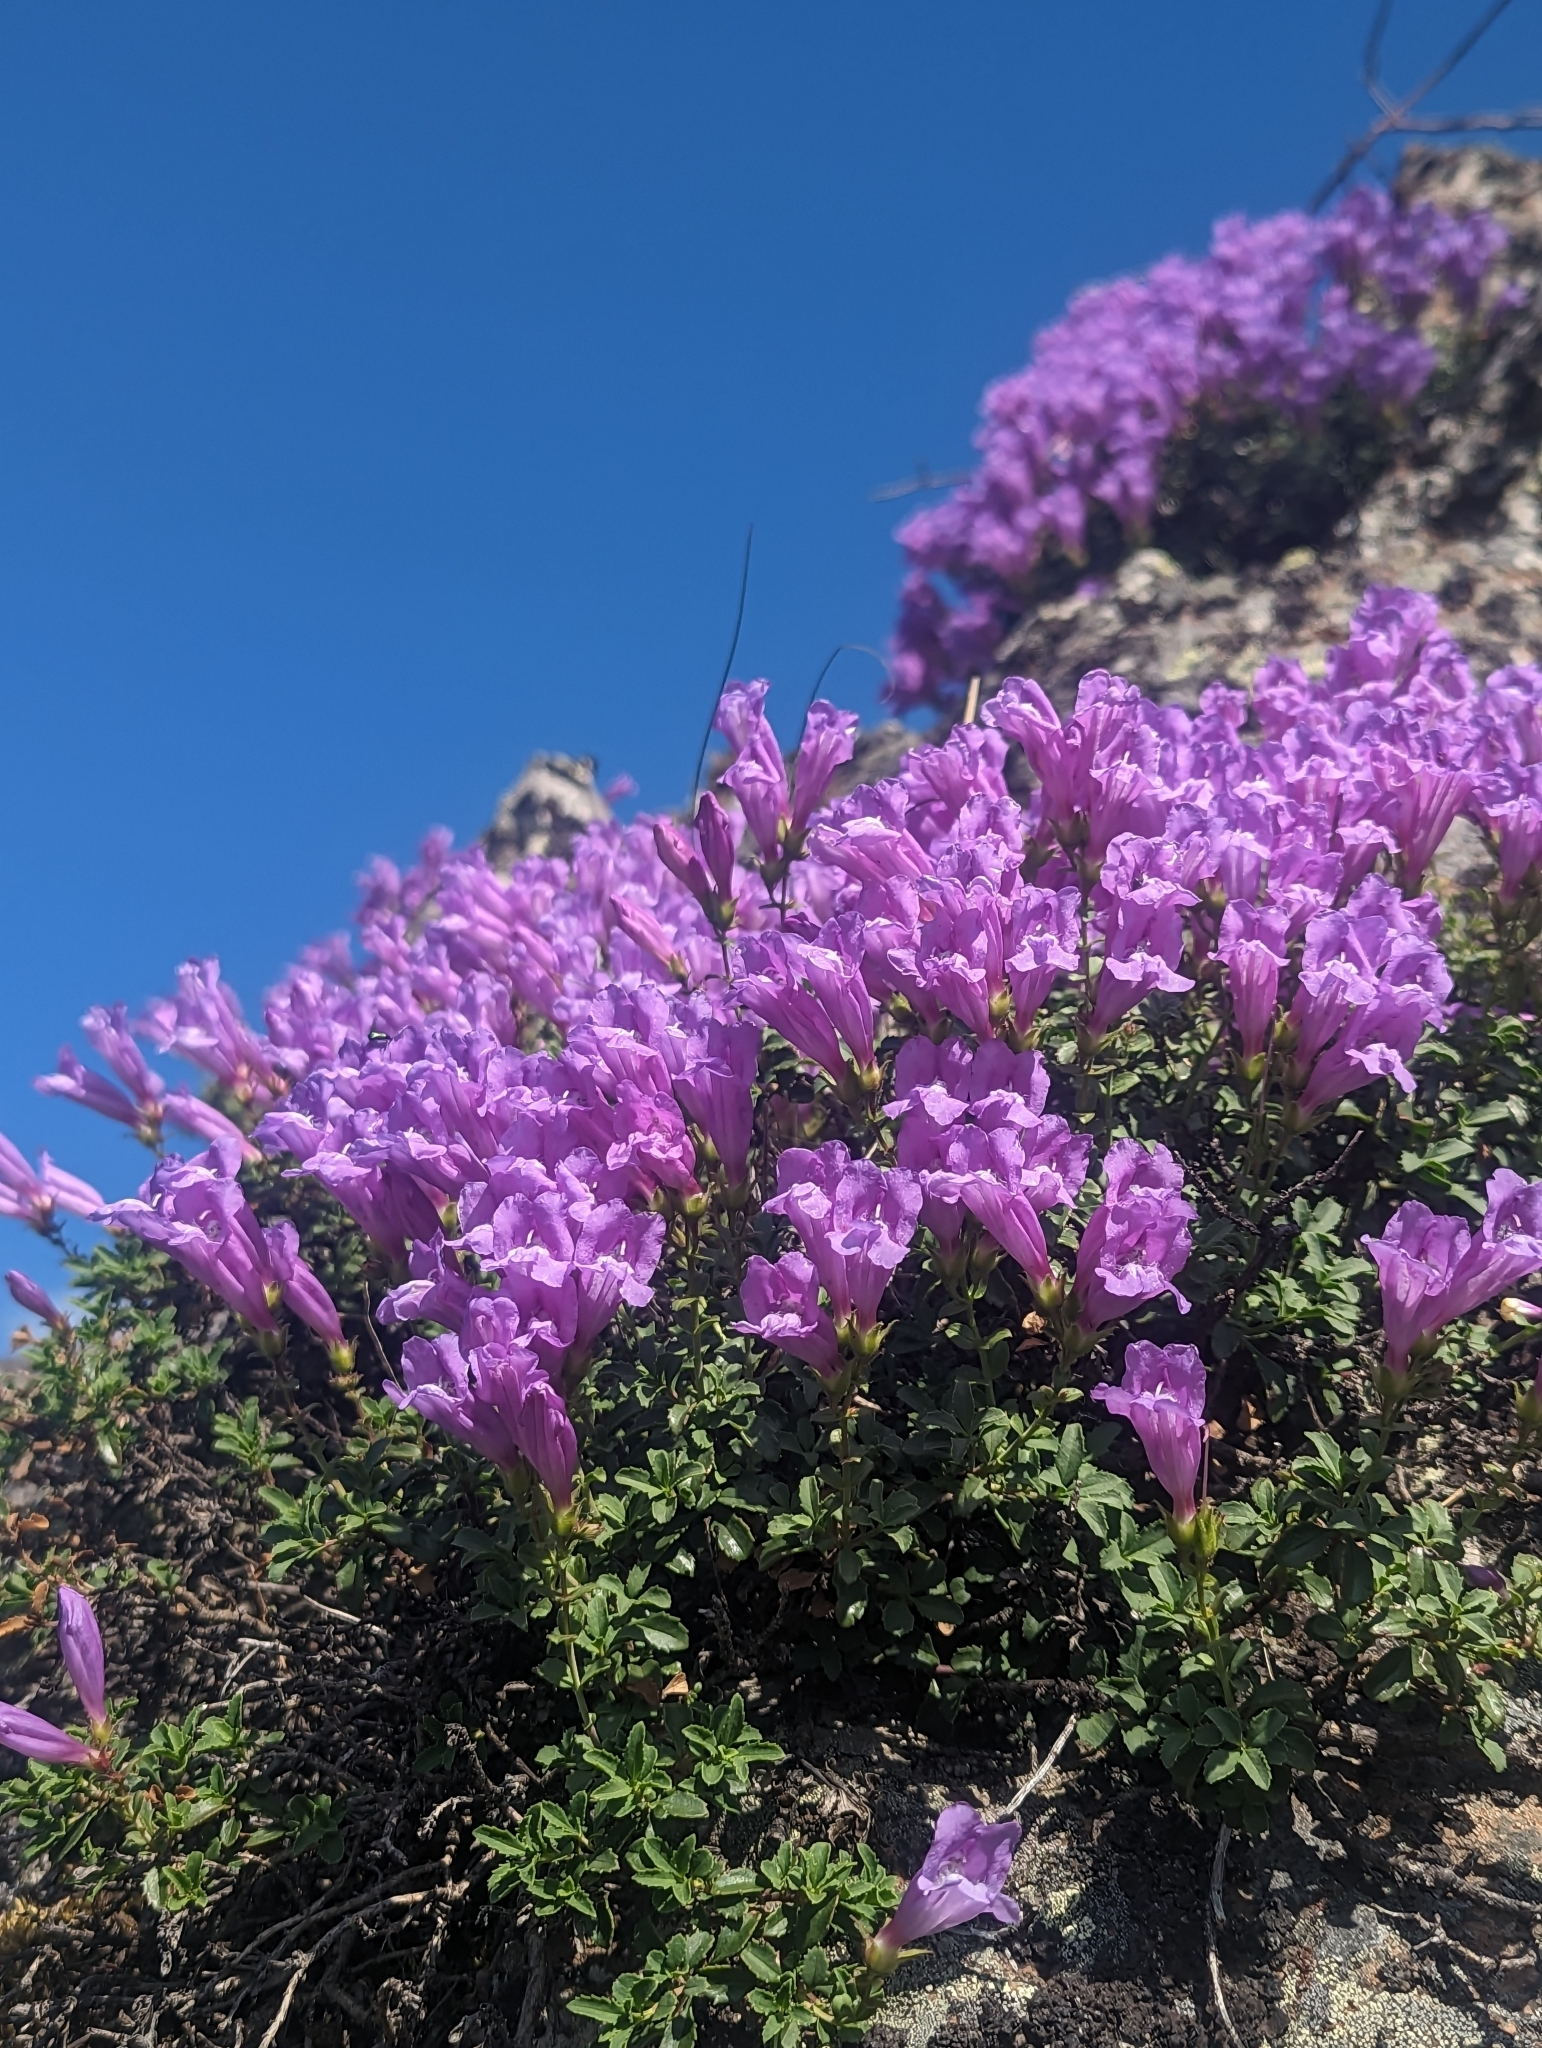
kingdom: Plantae
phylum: Tracheophyta
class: Magnoliopsida
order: Lamiales
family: Plantaginaceae
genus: Penstemon
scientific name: Penstemon fruticosus
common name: Bush penstemon
